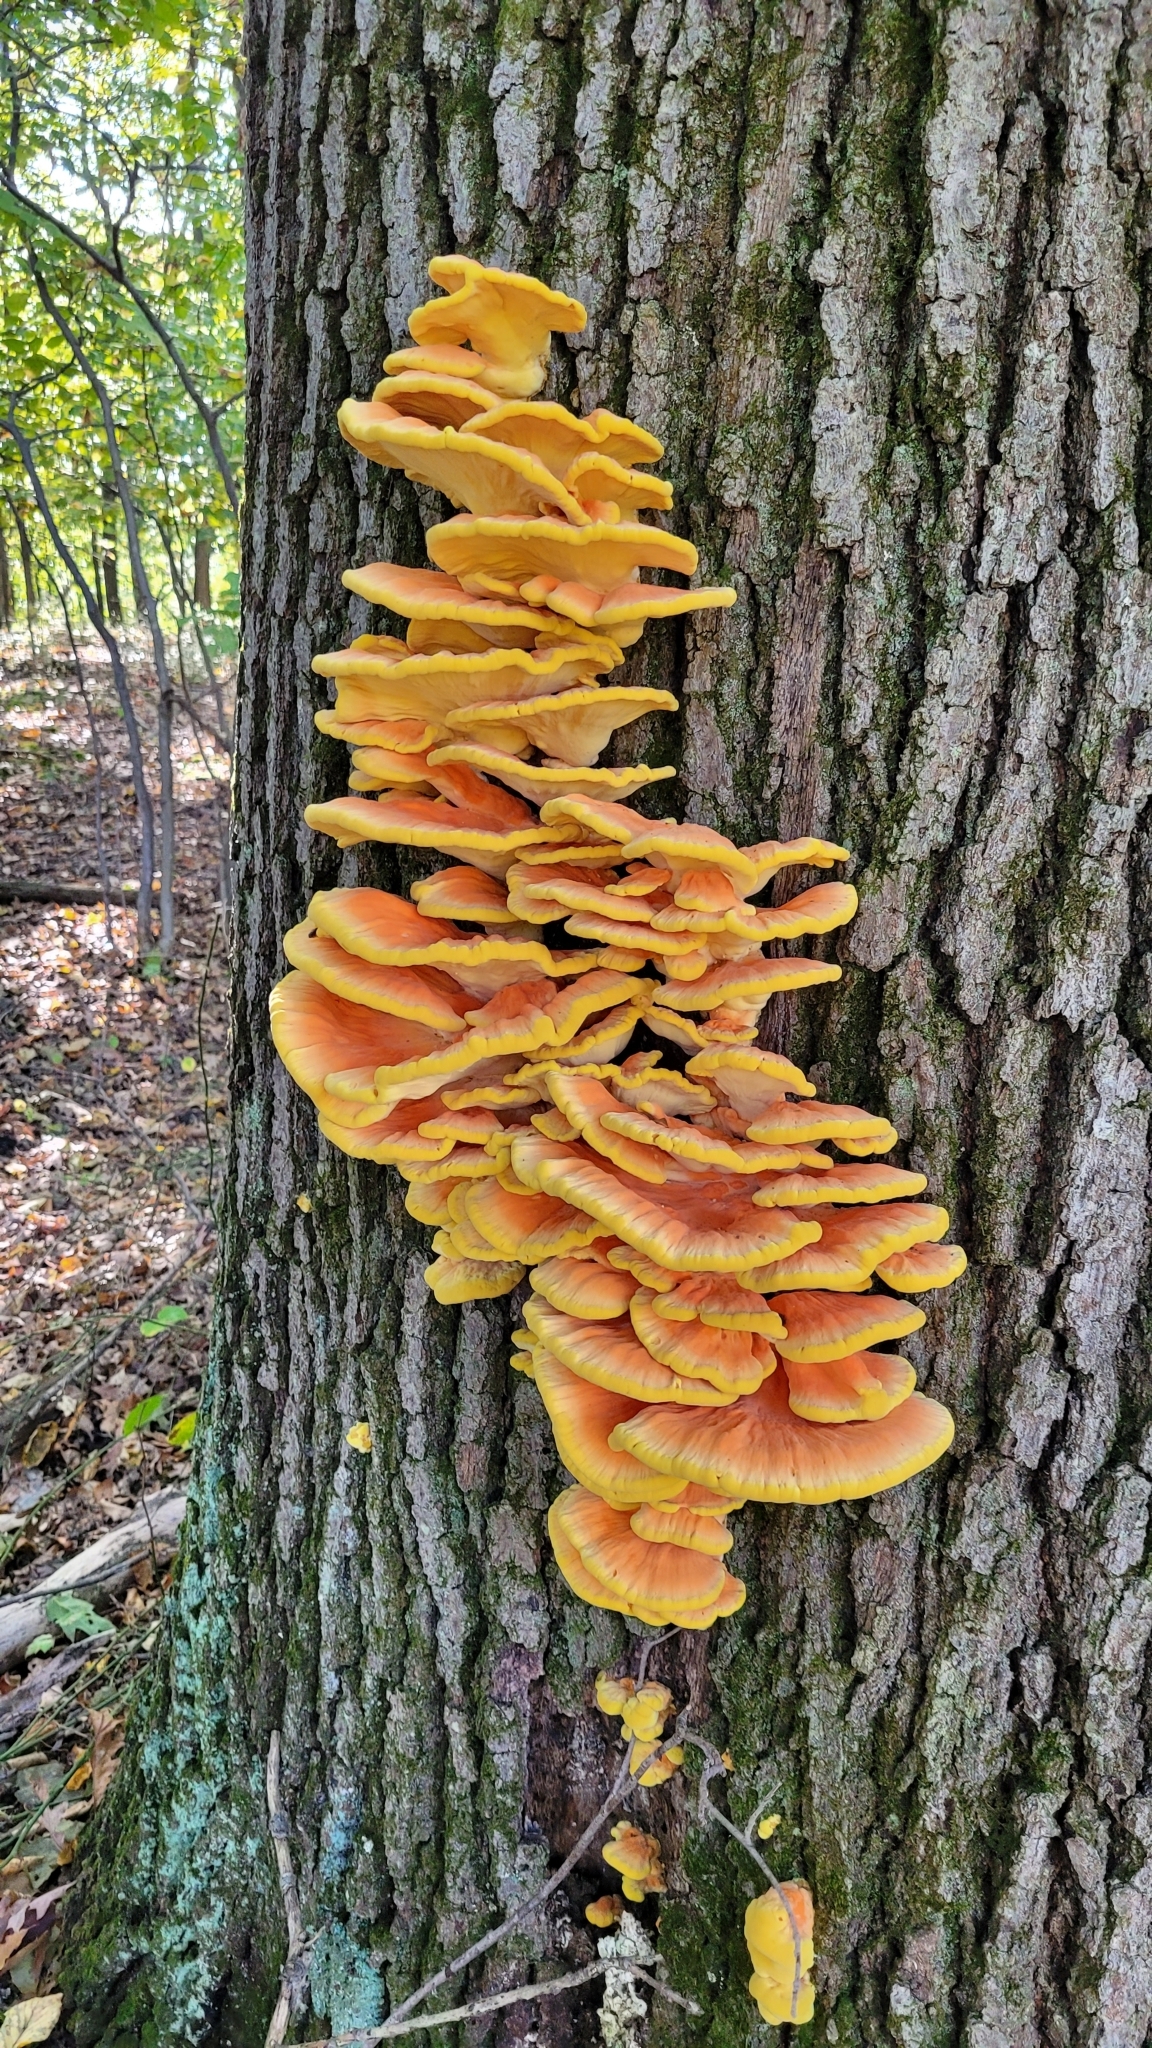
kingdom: Fungi
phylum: Basidiomycota
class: Agaricomycetes
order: Polyporales
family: Laetiporaceae
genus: Laetiporus
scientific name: Laetiporus sulphureus
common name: Chicken of the woods
